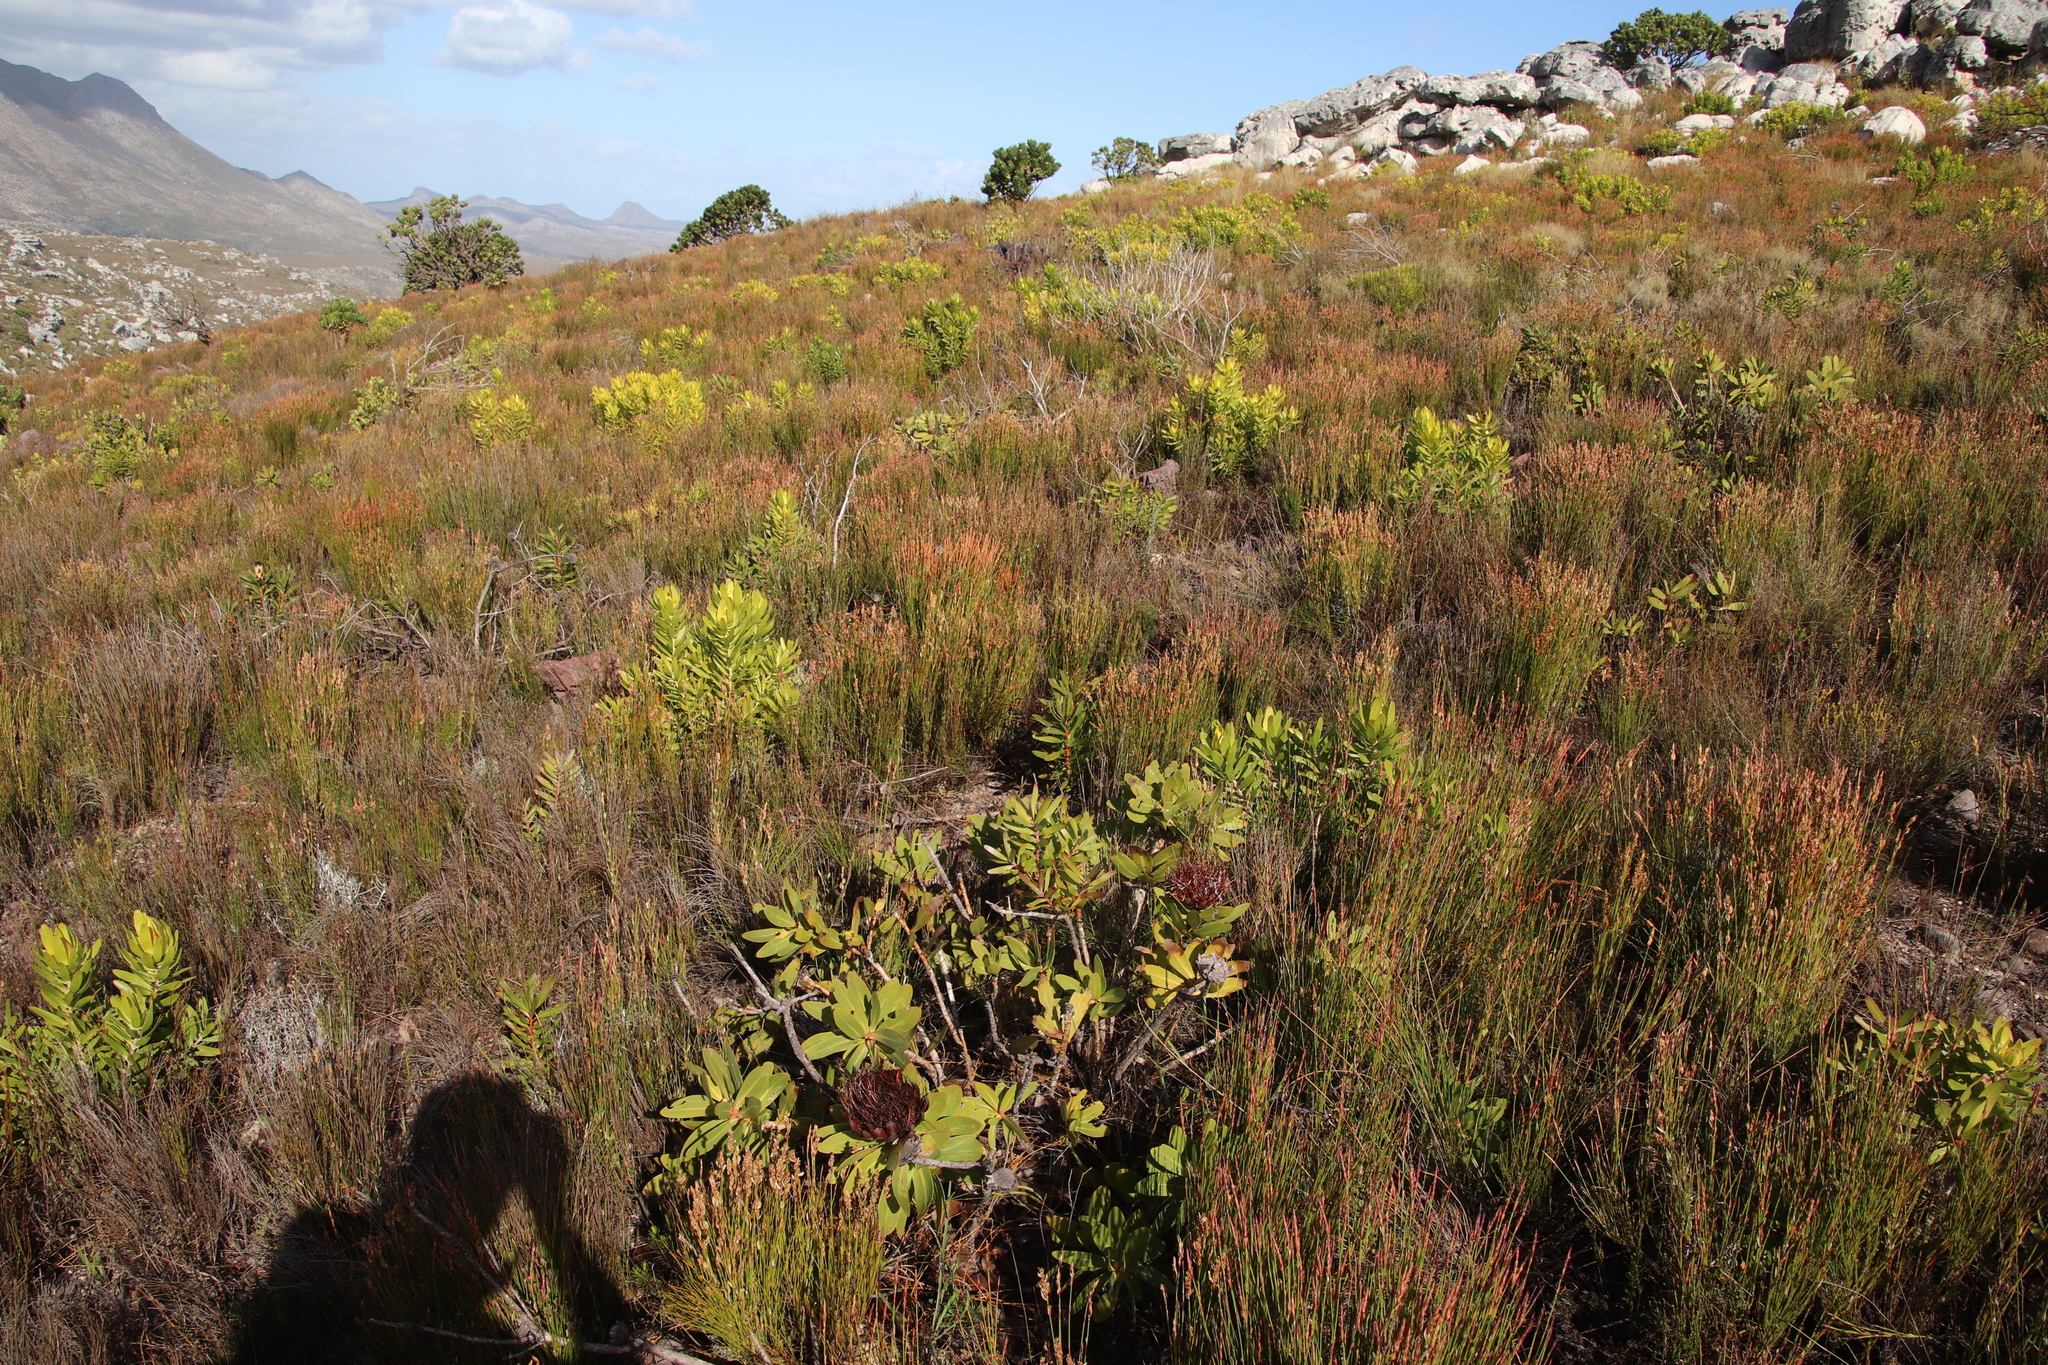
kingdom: Plantae
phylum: Tracheophyta
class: Magnoliopsida
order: Proteales
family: Proteaceae
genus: Protea
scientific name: Protea nitida
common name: Tree protea
